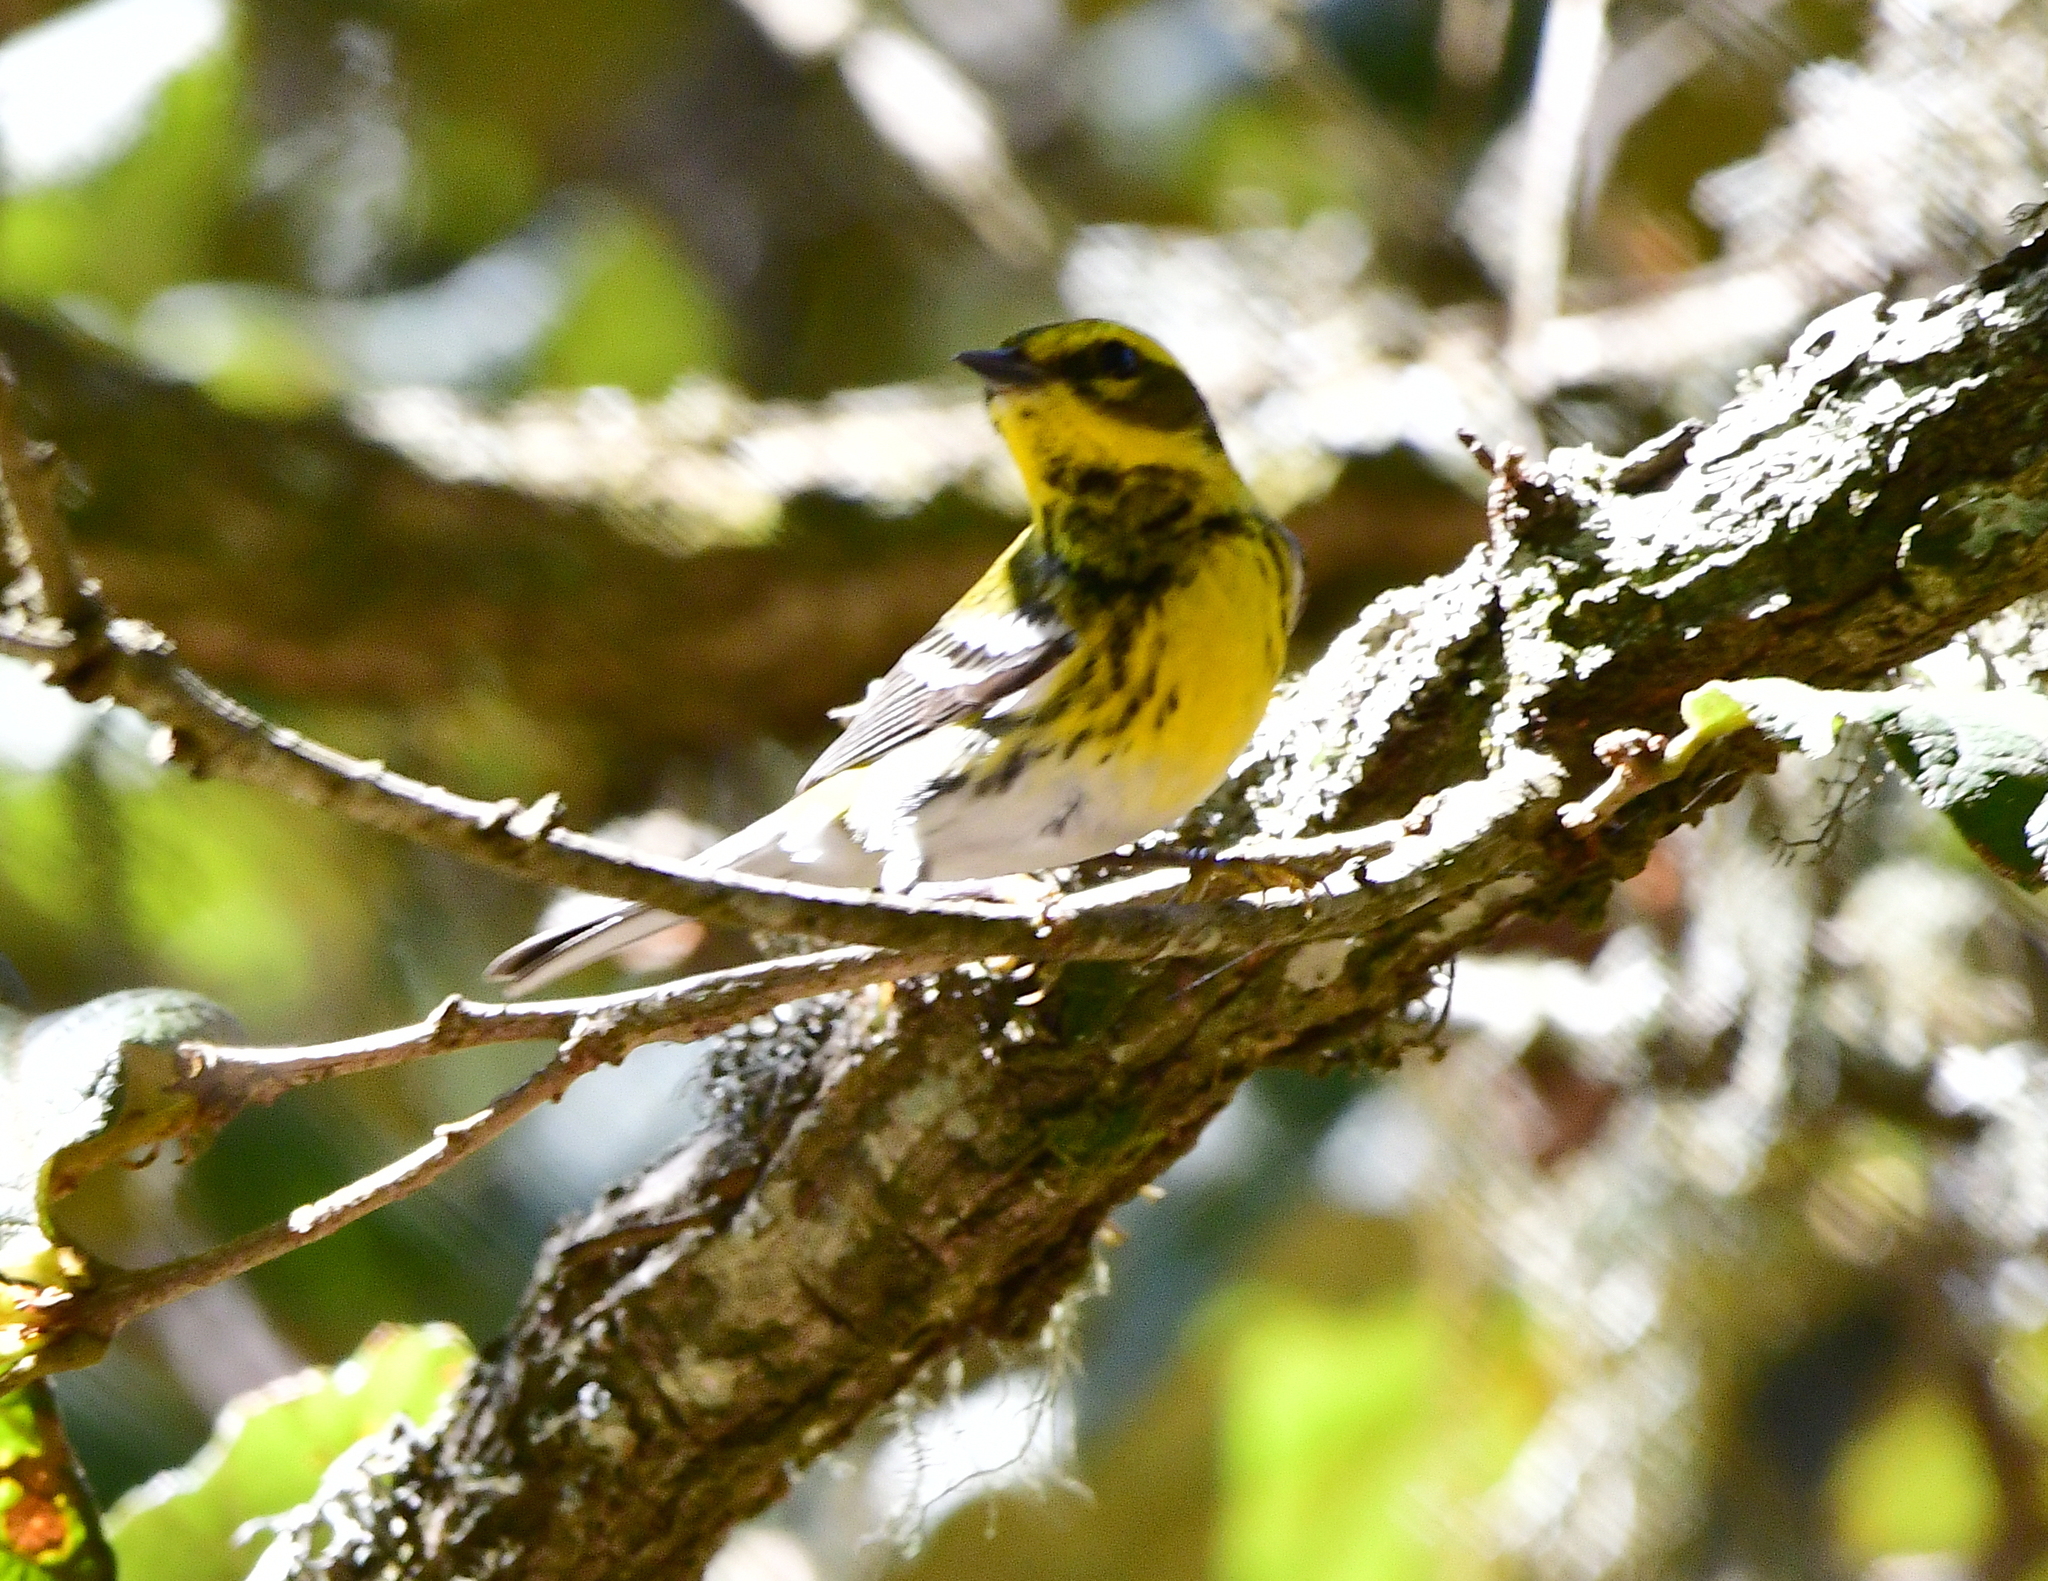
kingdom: Animalia
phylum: Chordata
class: Aves
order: Passeriformes
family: Parulidae
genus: Setophaga
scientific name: Setophaga townsendi
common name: Townsend's warbler
